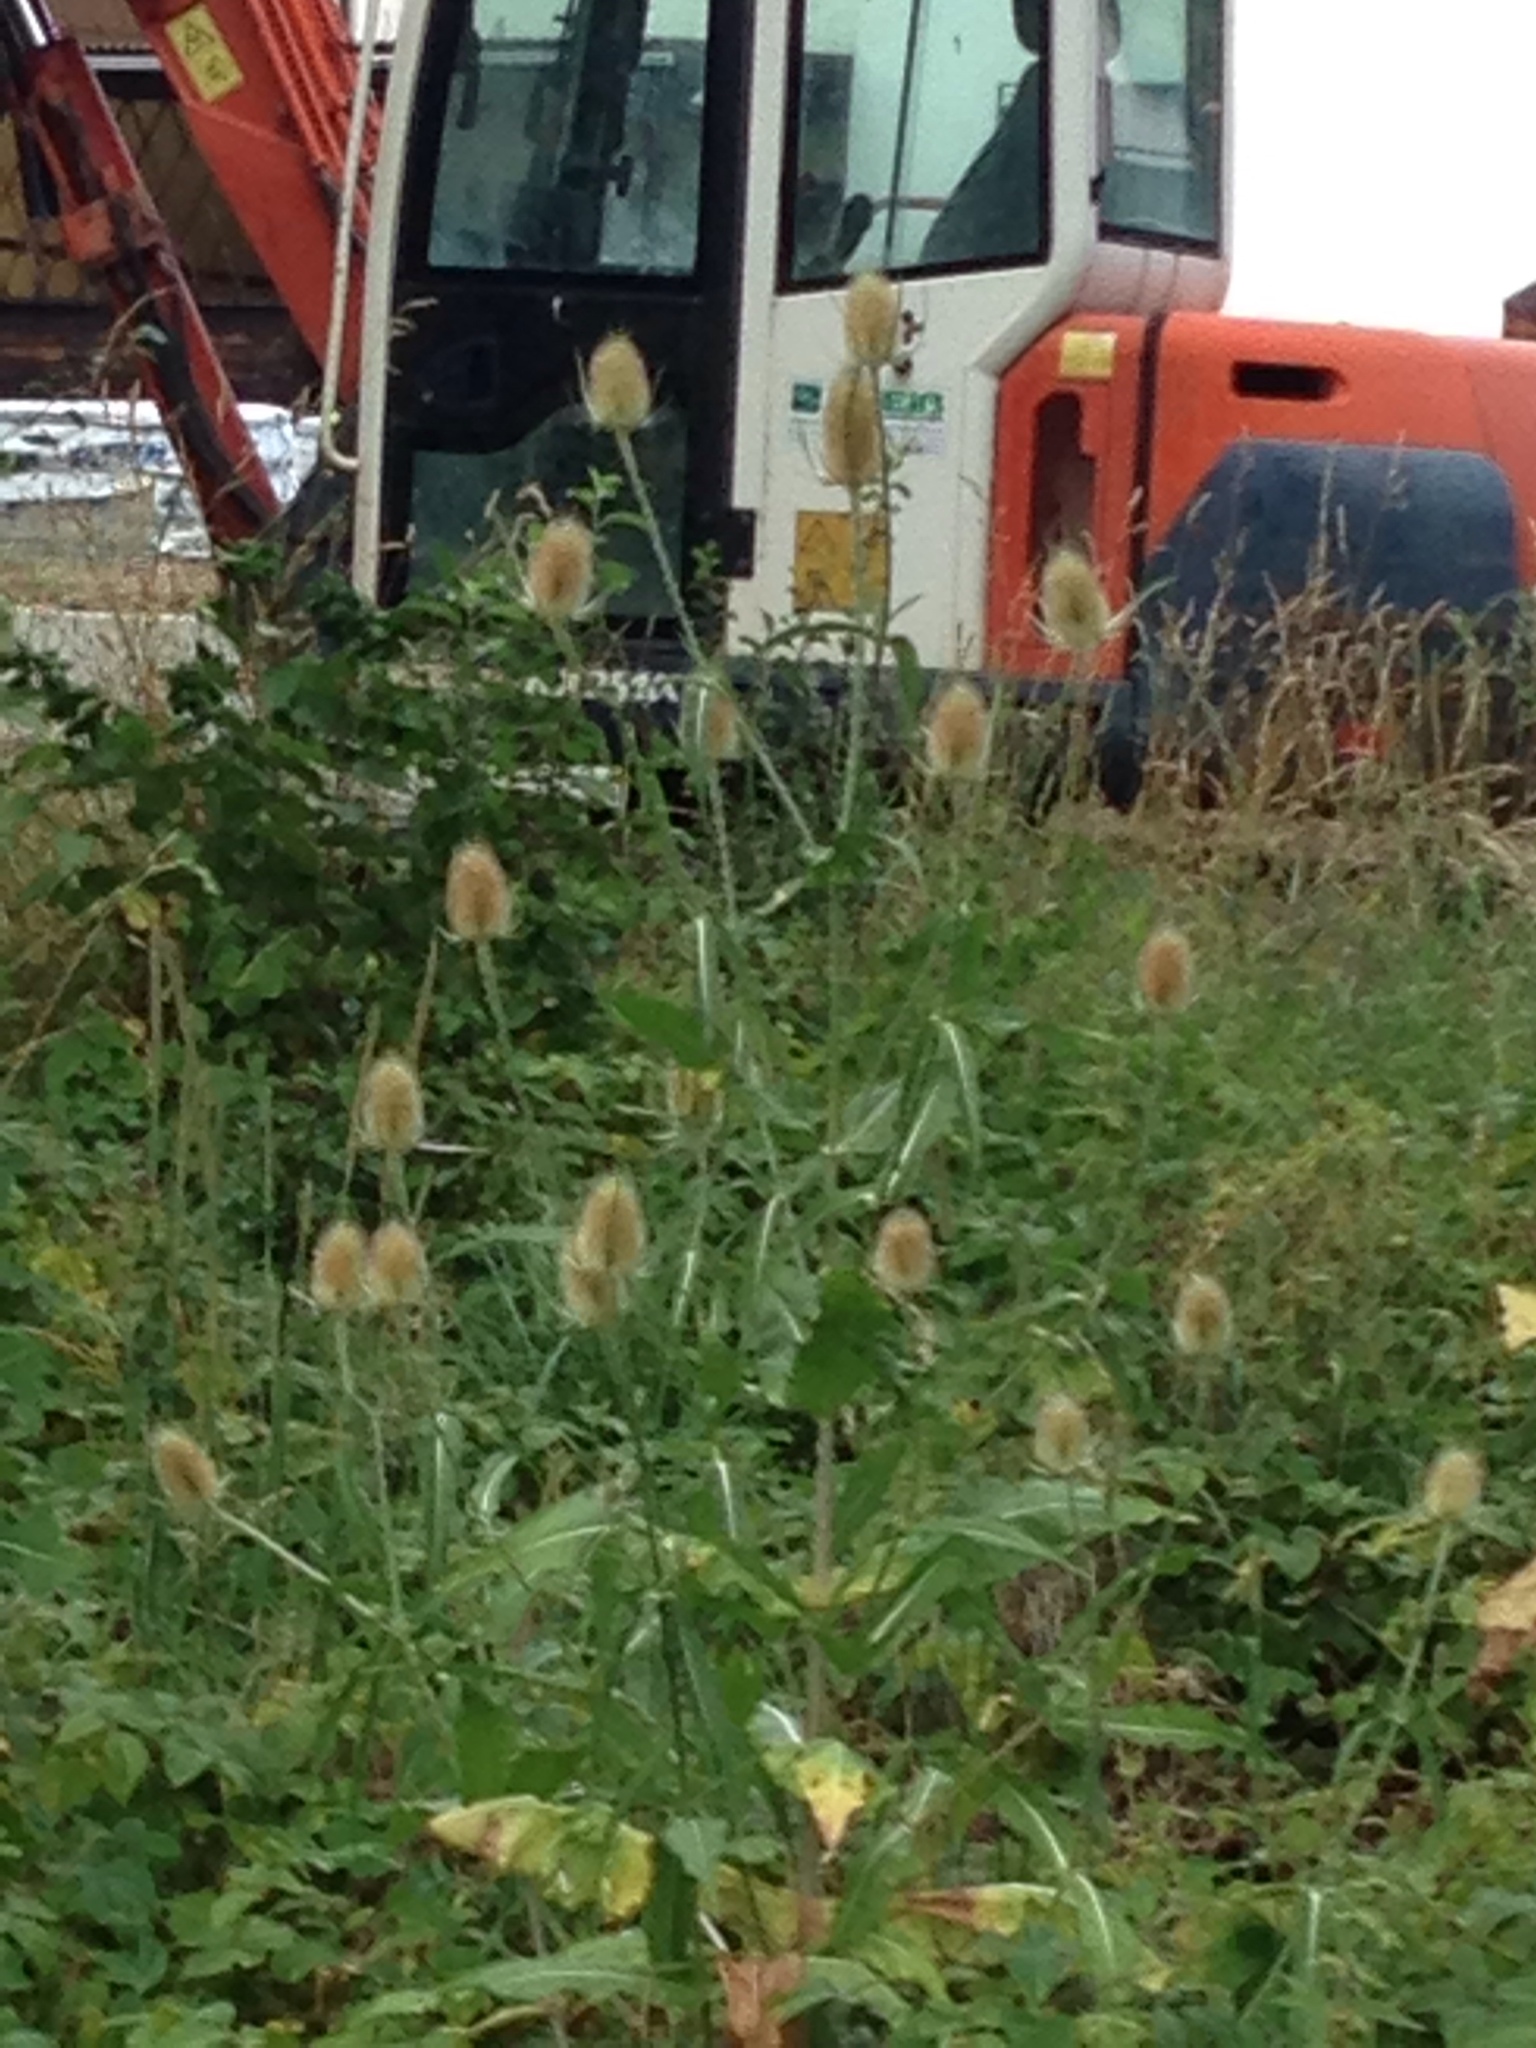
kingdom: Plantae
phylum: Tracheophyta
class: Magnoliopsida
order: Dipsacales
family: Caprifoliaceae
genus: Dipsacus
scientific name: Dipsacus fullonum
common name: Teasel
